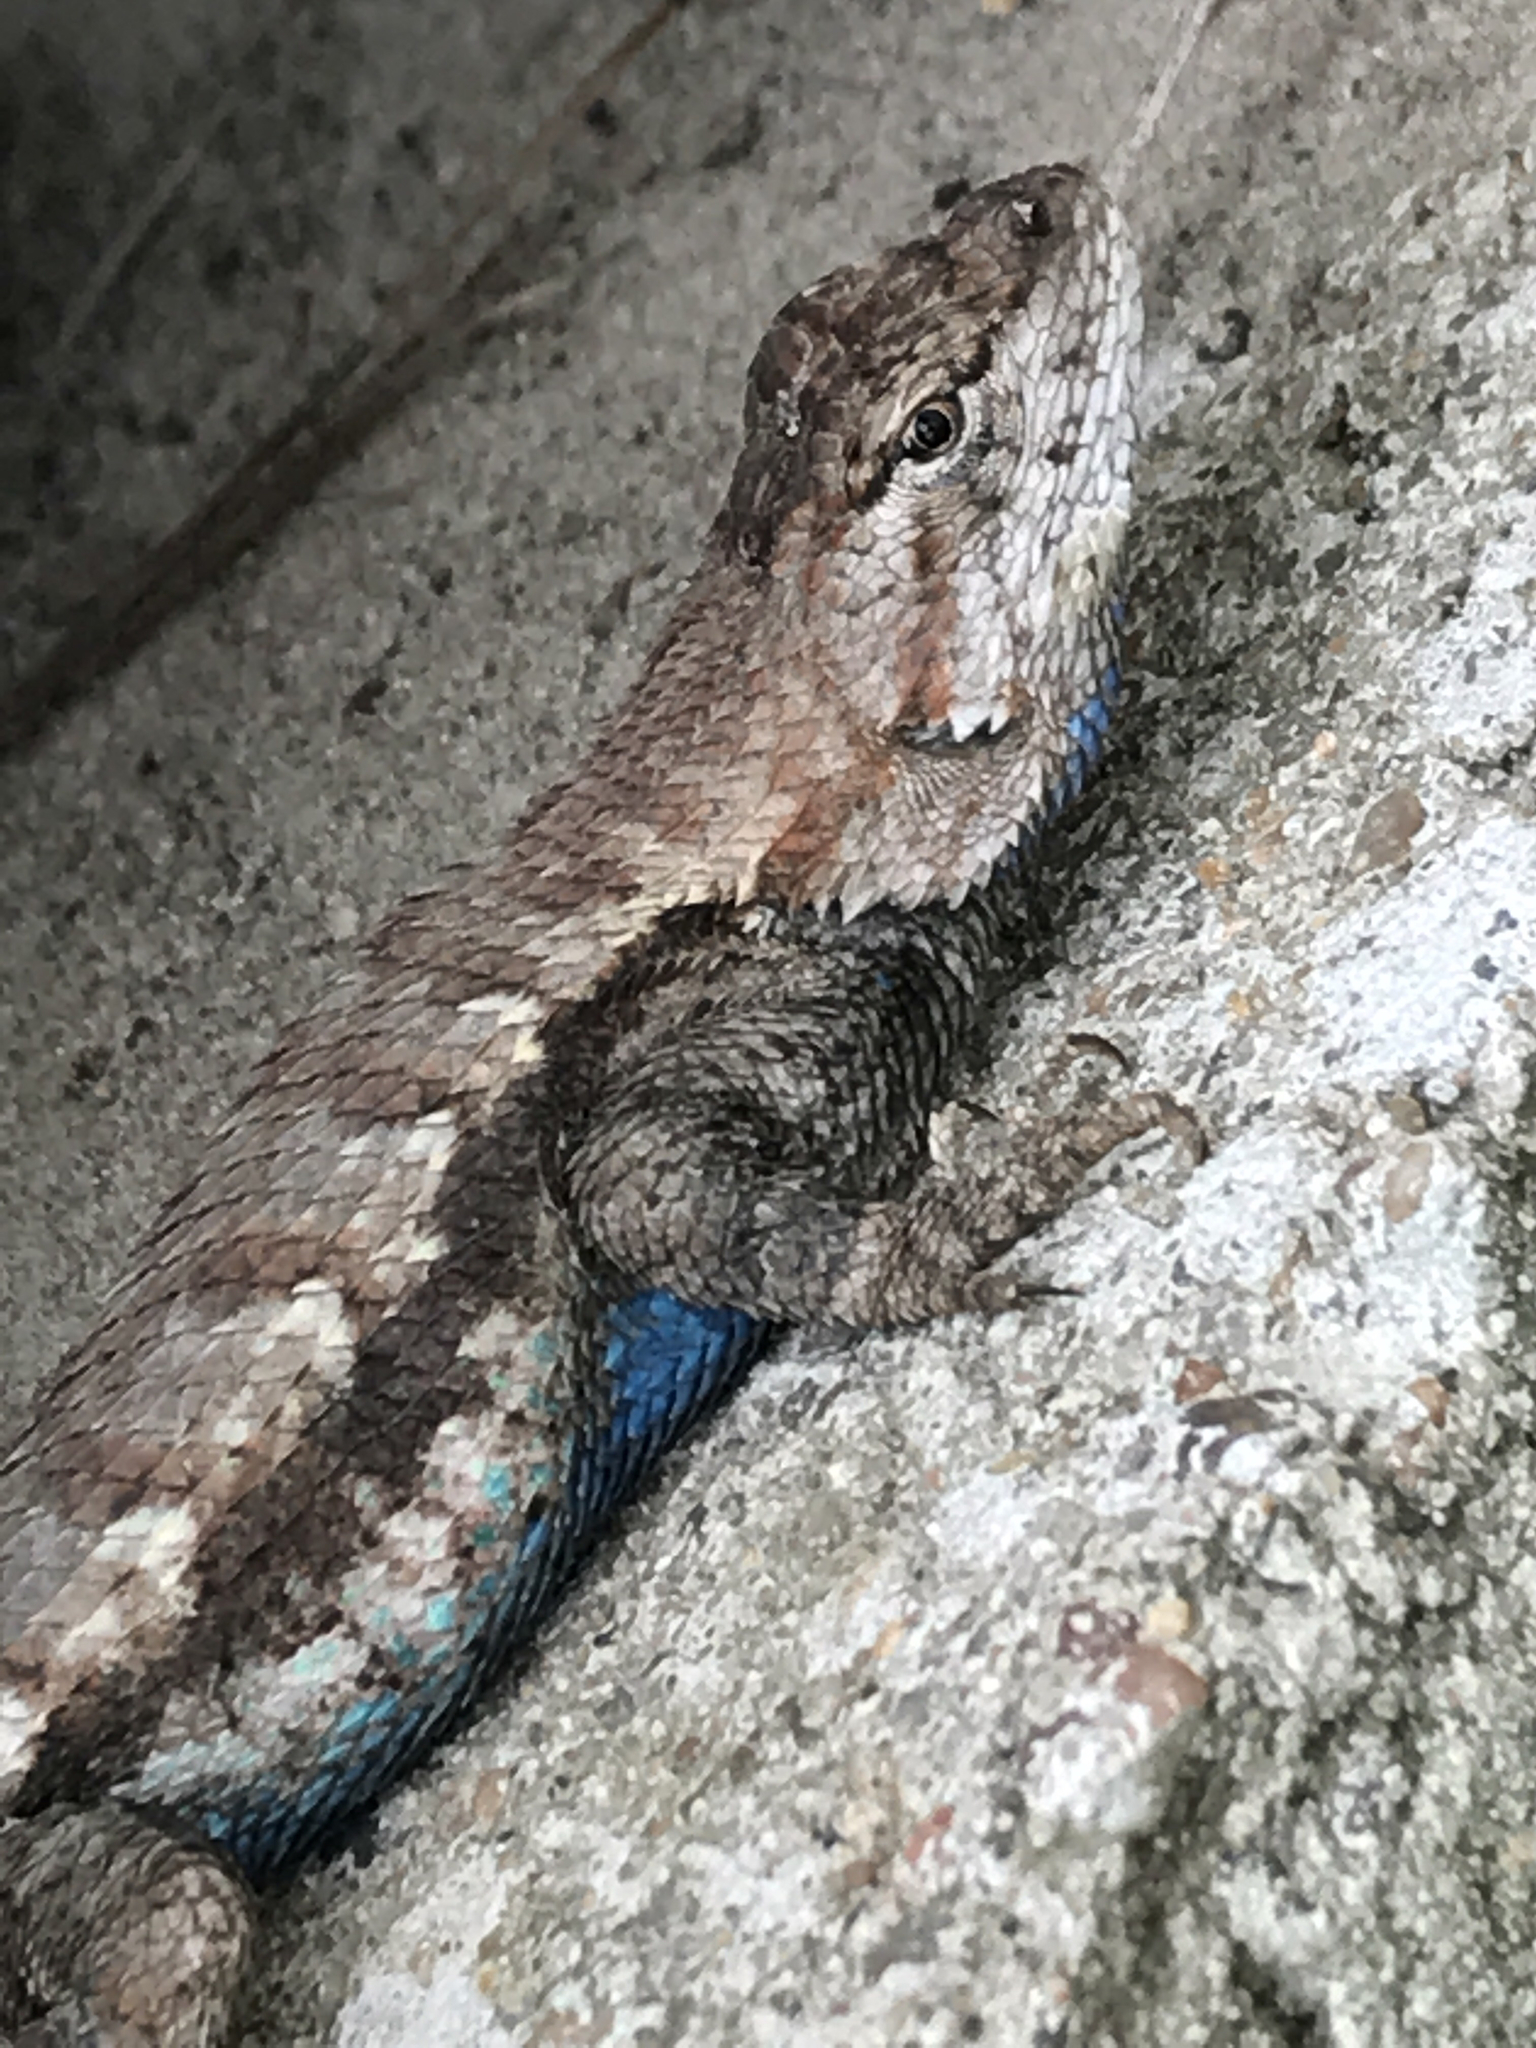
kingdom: Animalia
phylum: Chordata
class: Squamata
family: Phrynosomatidae
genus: Sceloporus
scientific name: Sceloporus consobrinus
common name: Southern prairie lizard
